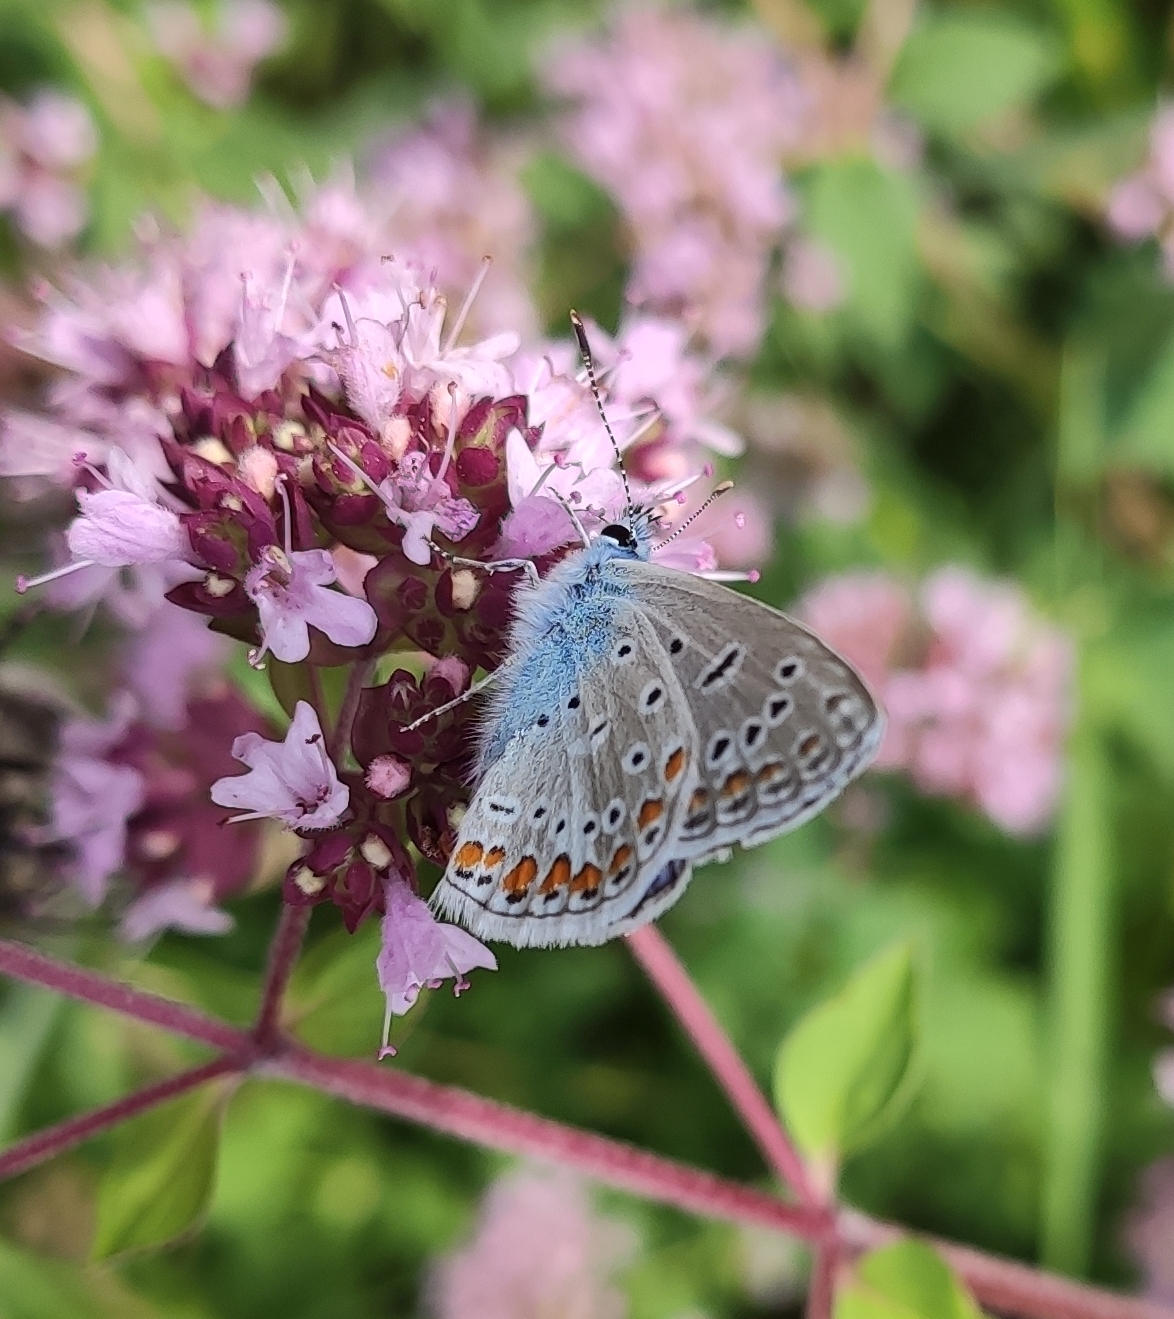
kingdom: Animalia
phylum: Arthropoda
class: Insecta
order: Lepidoptera
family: Lycaenidae
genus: Polyommatus
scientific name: Polyommatus icarus
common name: Common blue
